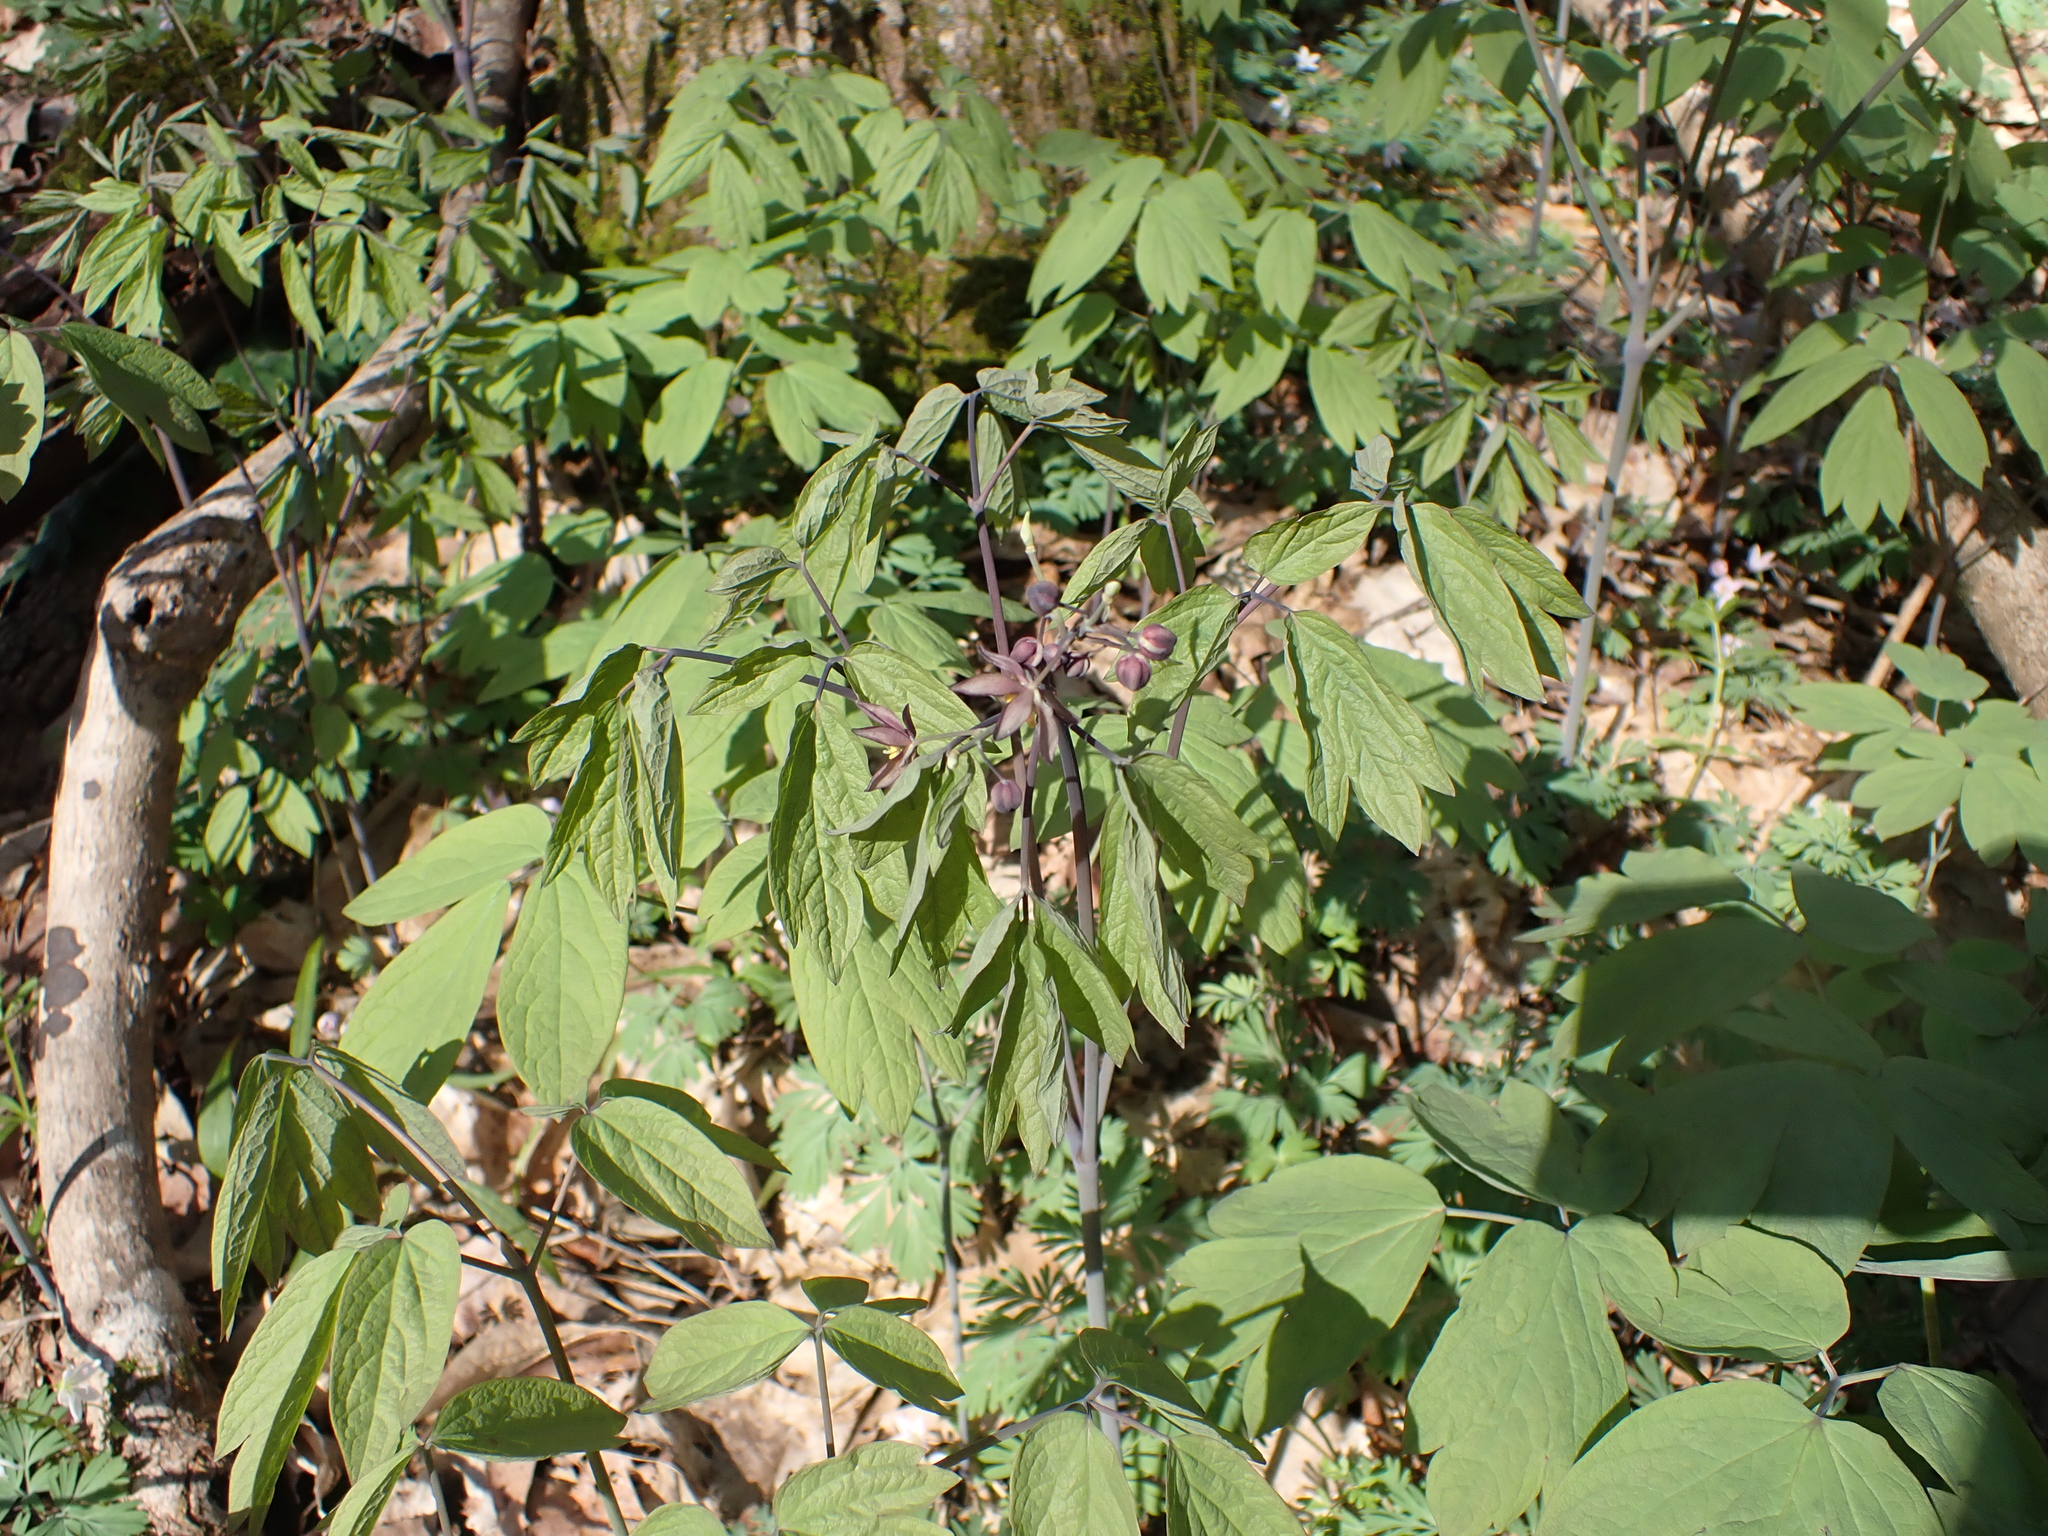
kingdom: Plantae
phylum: Tracheophyta
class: Magnoliopsida
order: Ranunculales
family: Berberidaceae
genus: Caulophyllum
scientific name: Caulophyllum giganteum
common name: Blue cohosh
